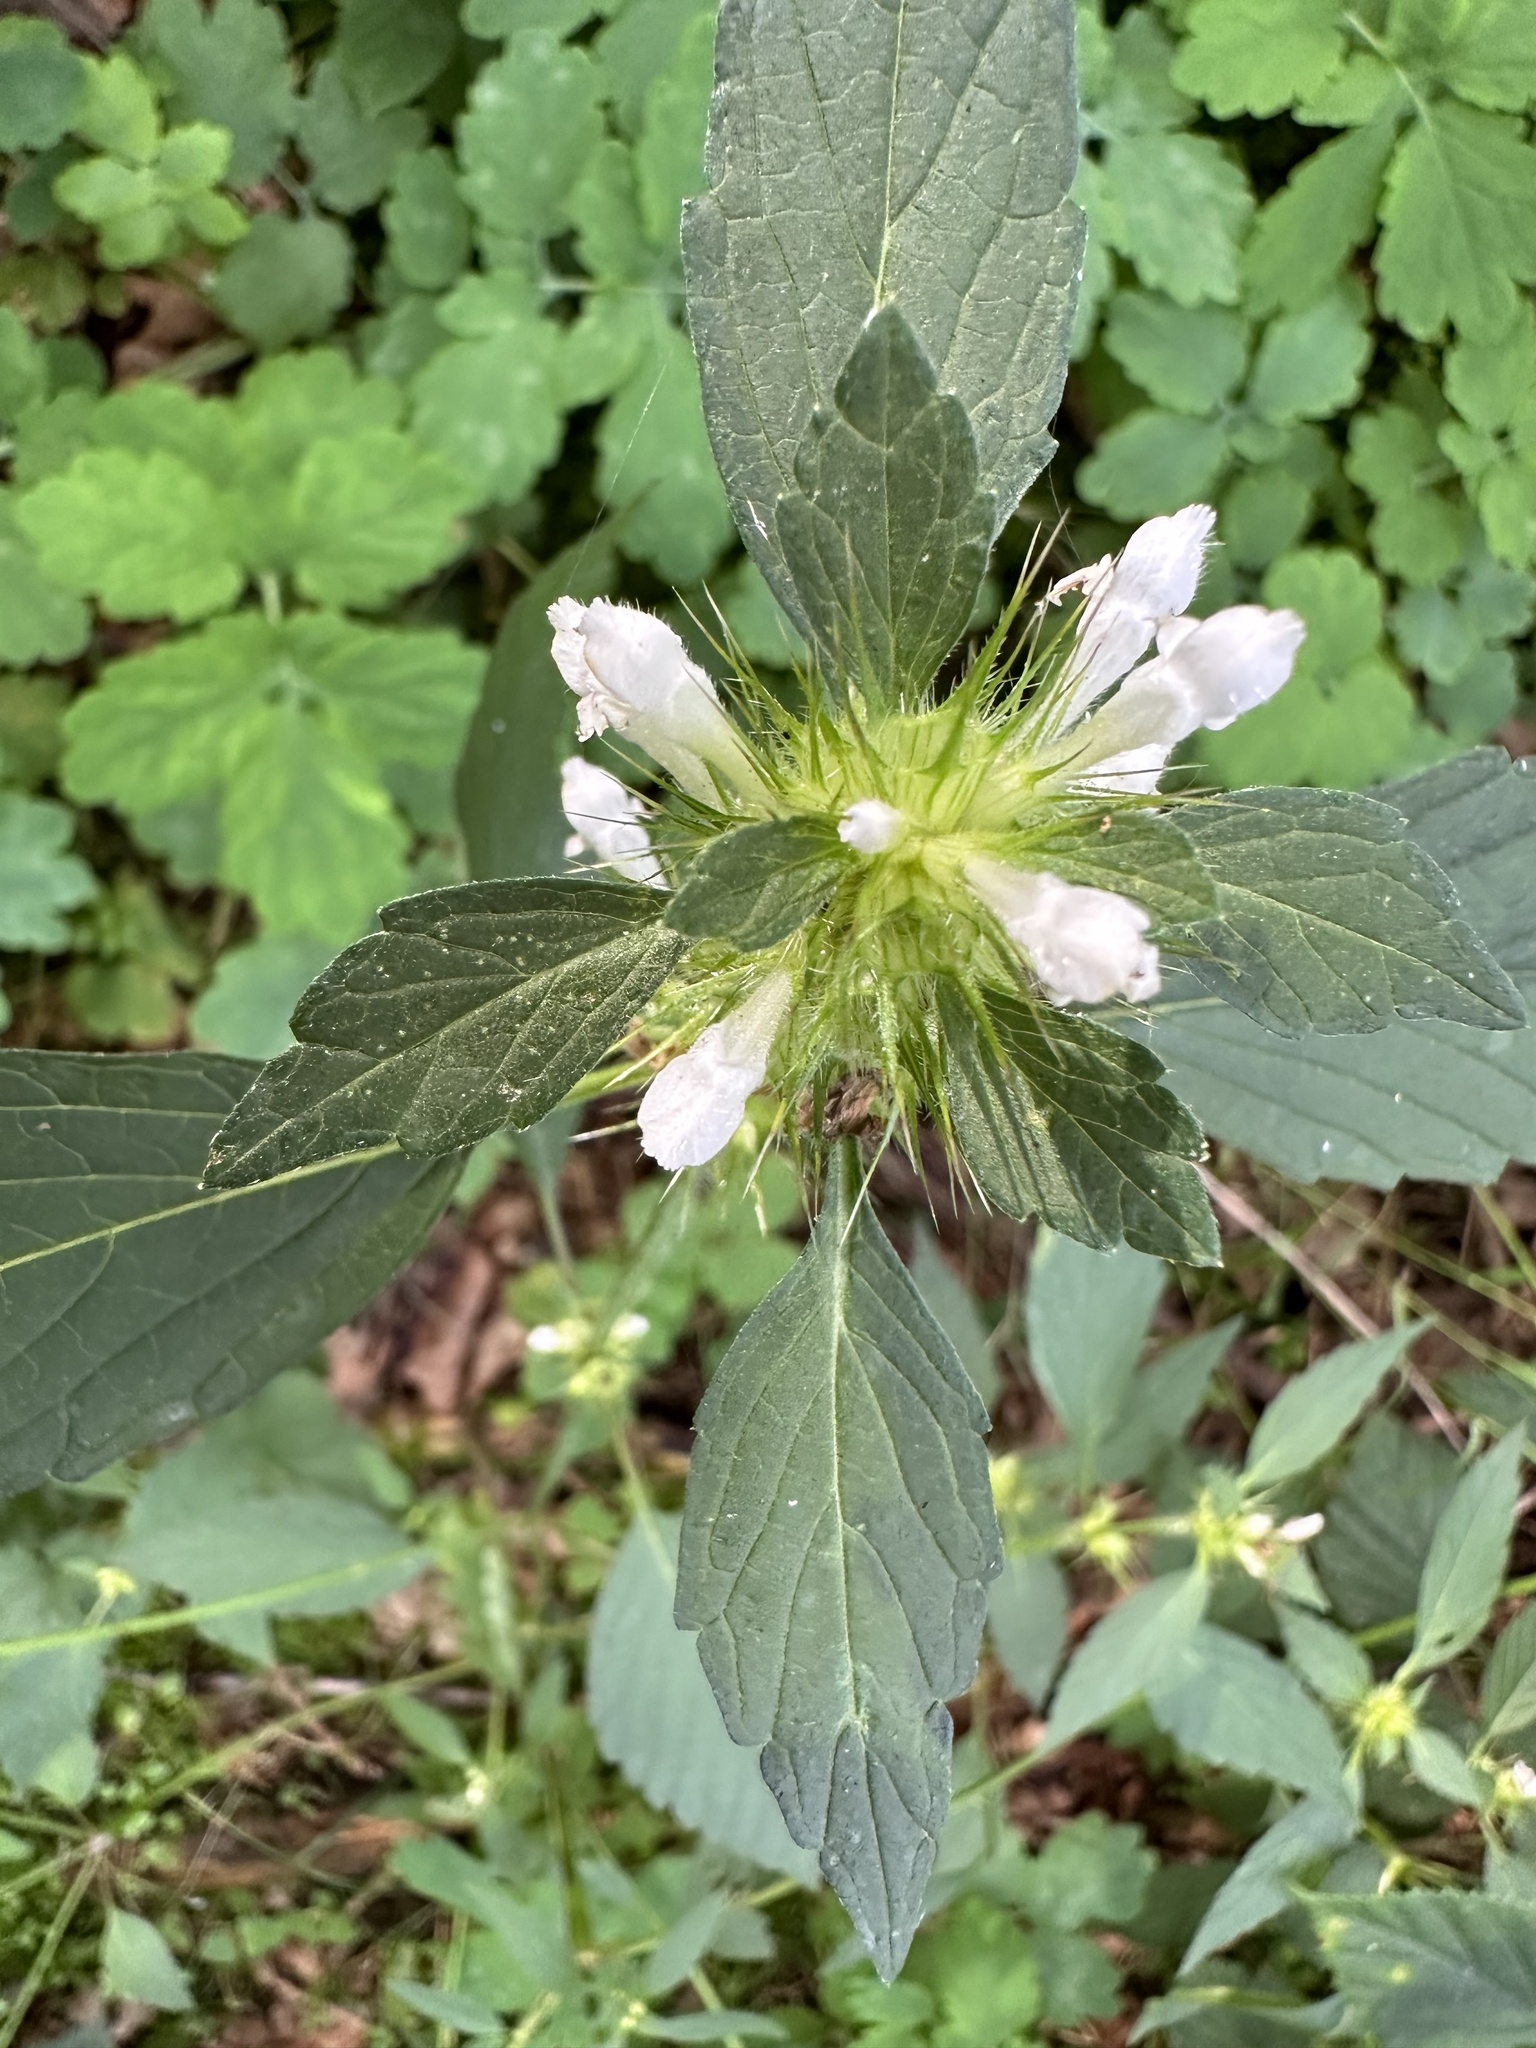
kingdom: Plantae
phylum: Tracheophyta
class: Magnoliopsida
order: Lamiales
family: Lamiaceae
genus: Galeopsis
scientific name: Galeopsis tetrahit
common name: Common hemp-nettle
